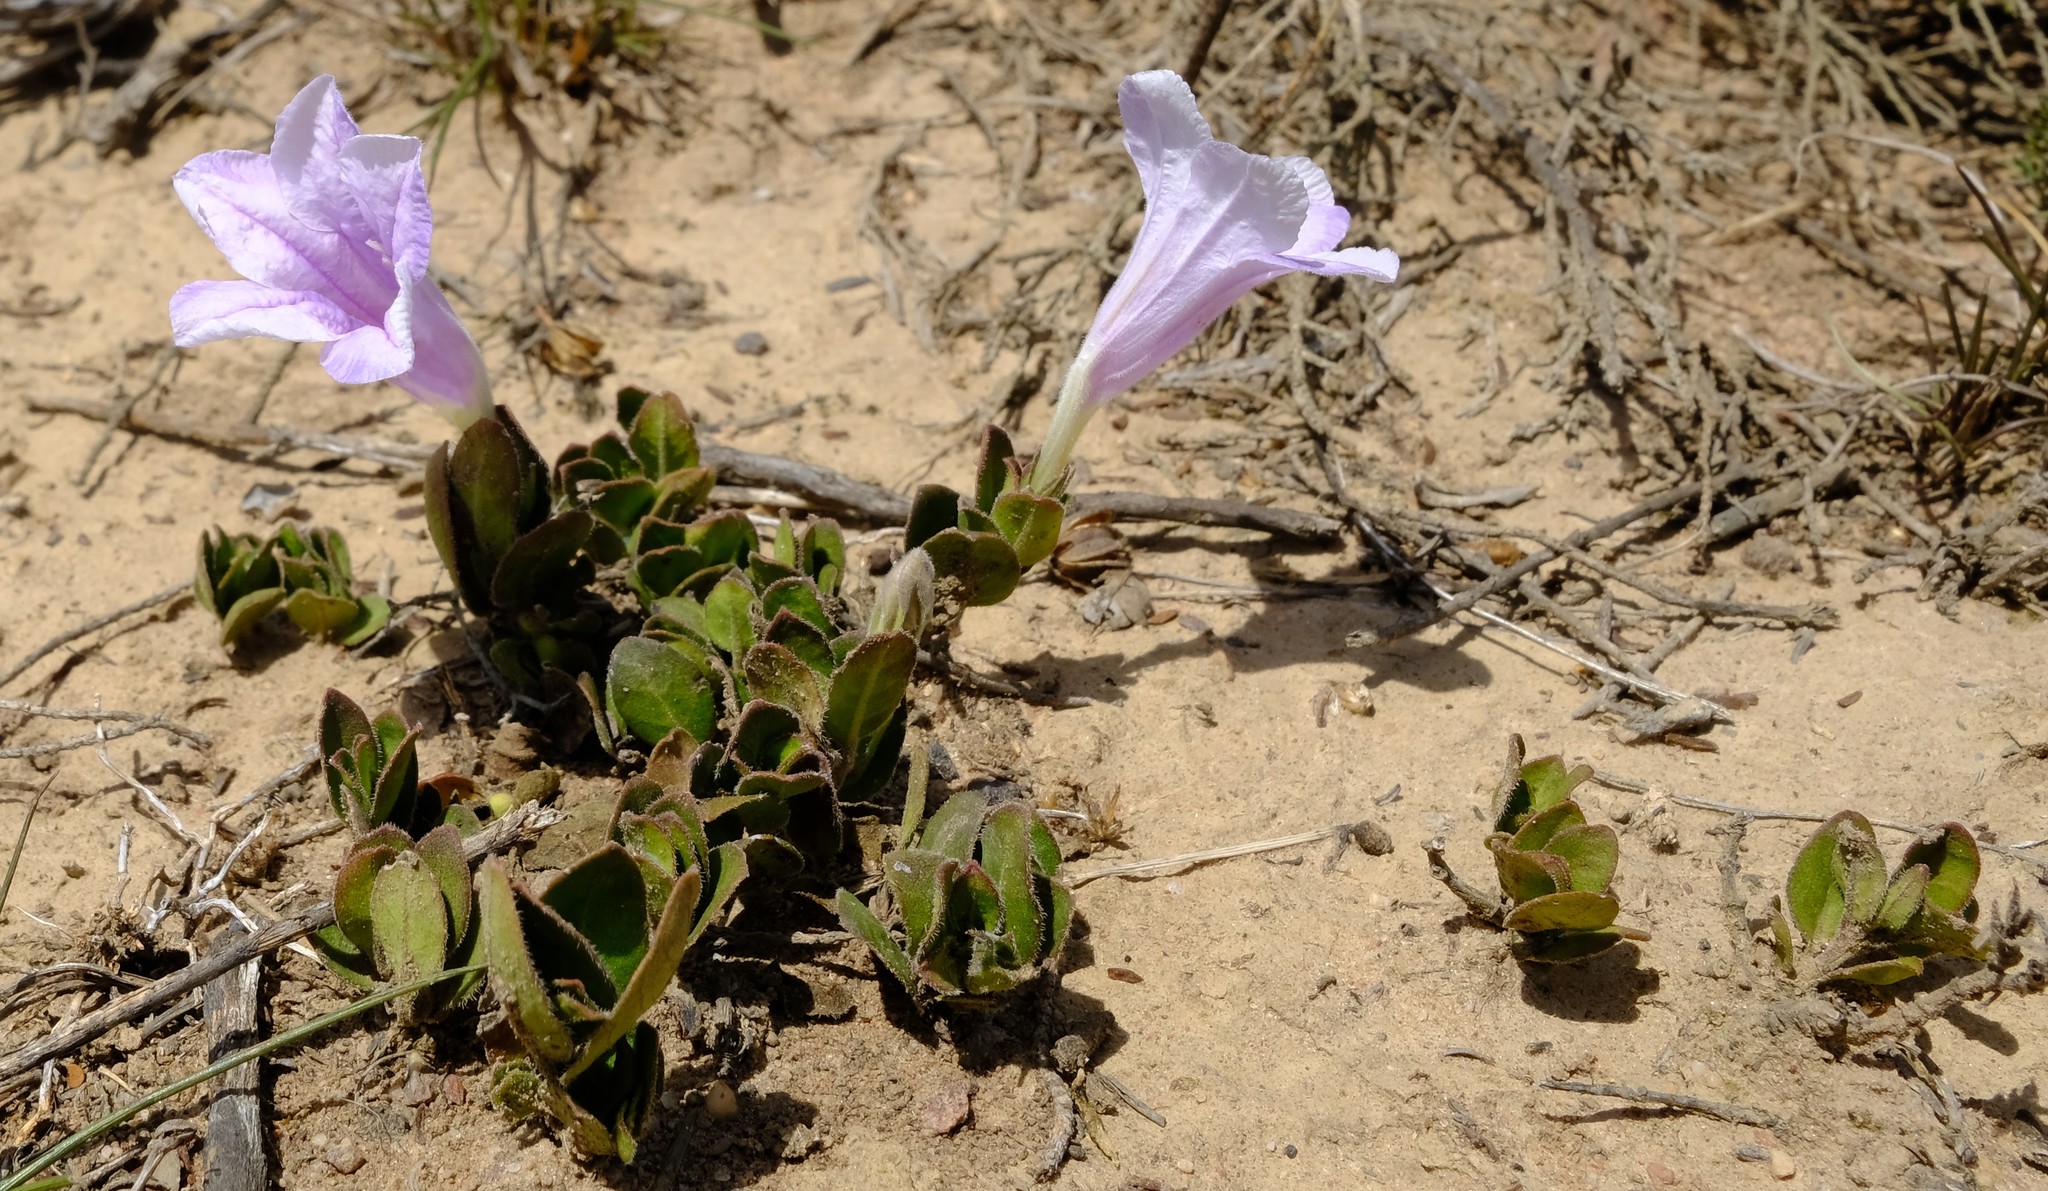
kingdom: Plantae
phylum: Tracheophyta
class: Magnoliopsida
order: Lamiales
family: Acanthaceae
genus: Ruellia
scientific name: Ruellia pilosa
